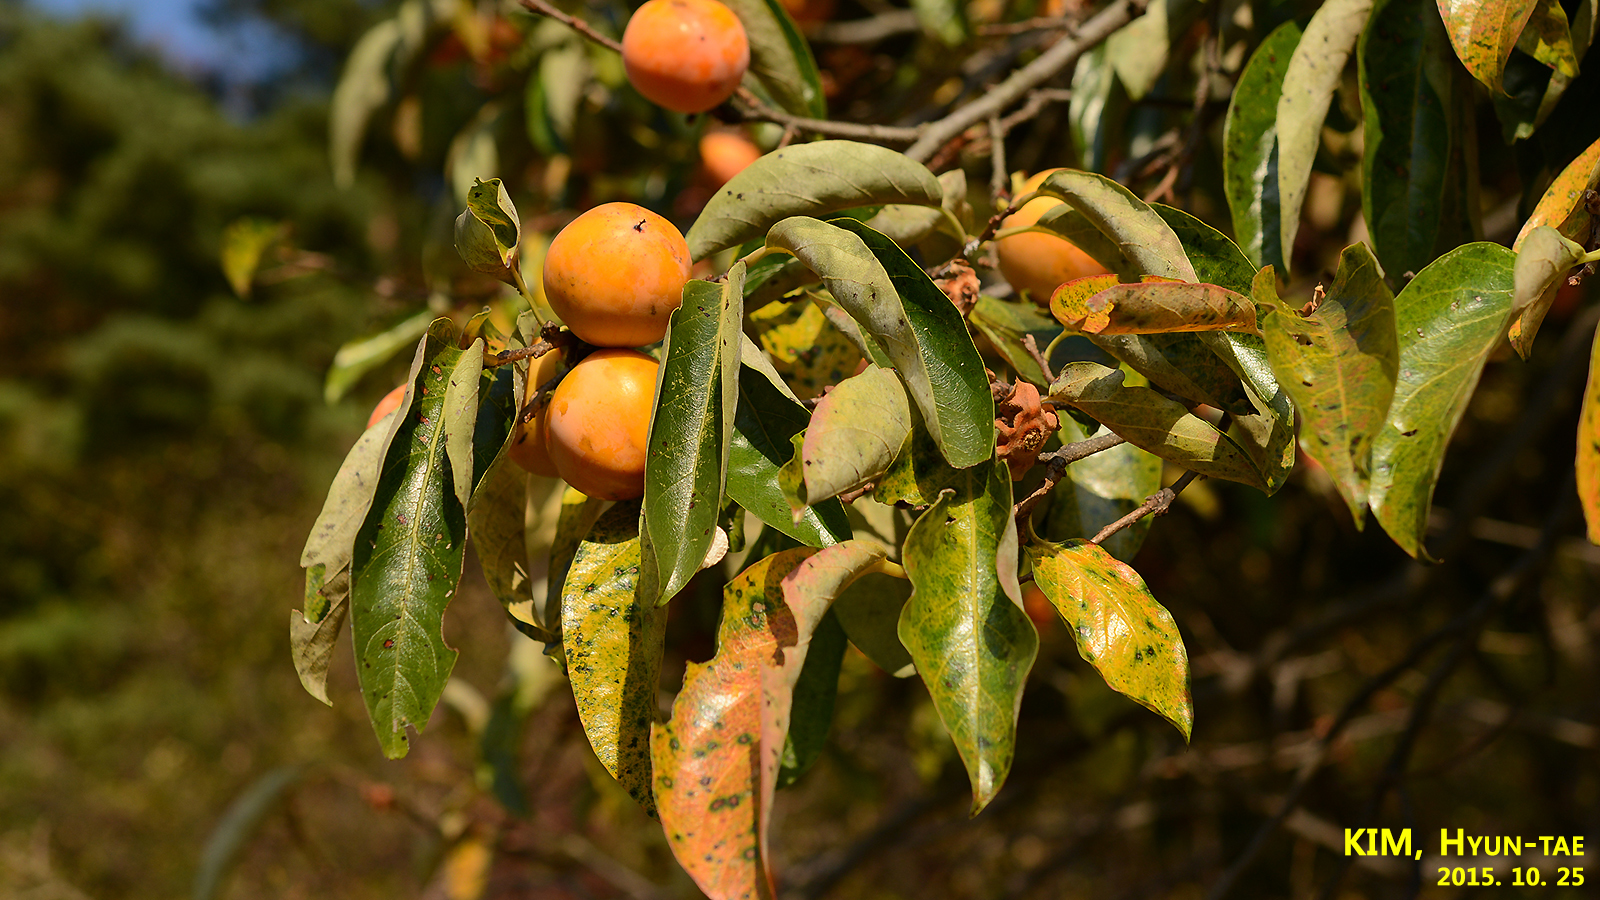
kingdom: Plantae
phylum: Tracheophyta
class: Magnoliopsida
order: Ericales
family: Ebenaceae
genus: Diospyros
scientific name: Diospyros kaki
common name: Persimmon
